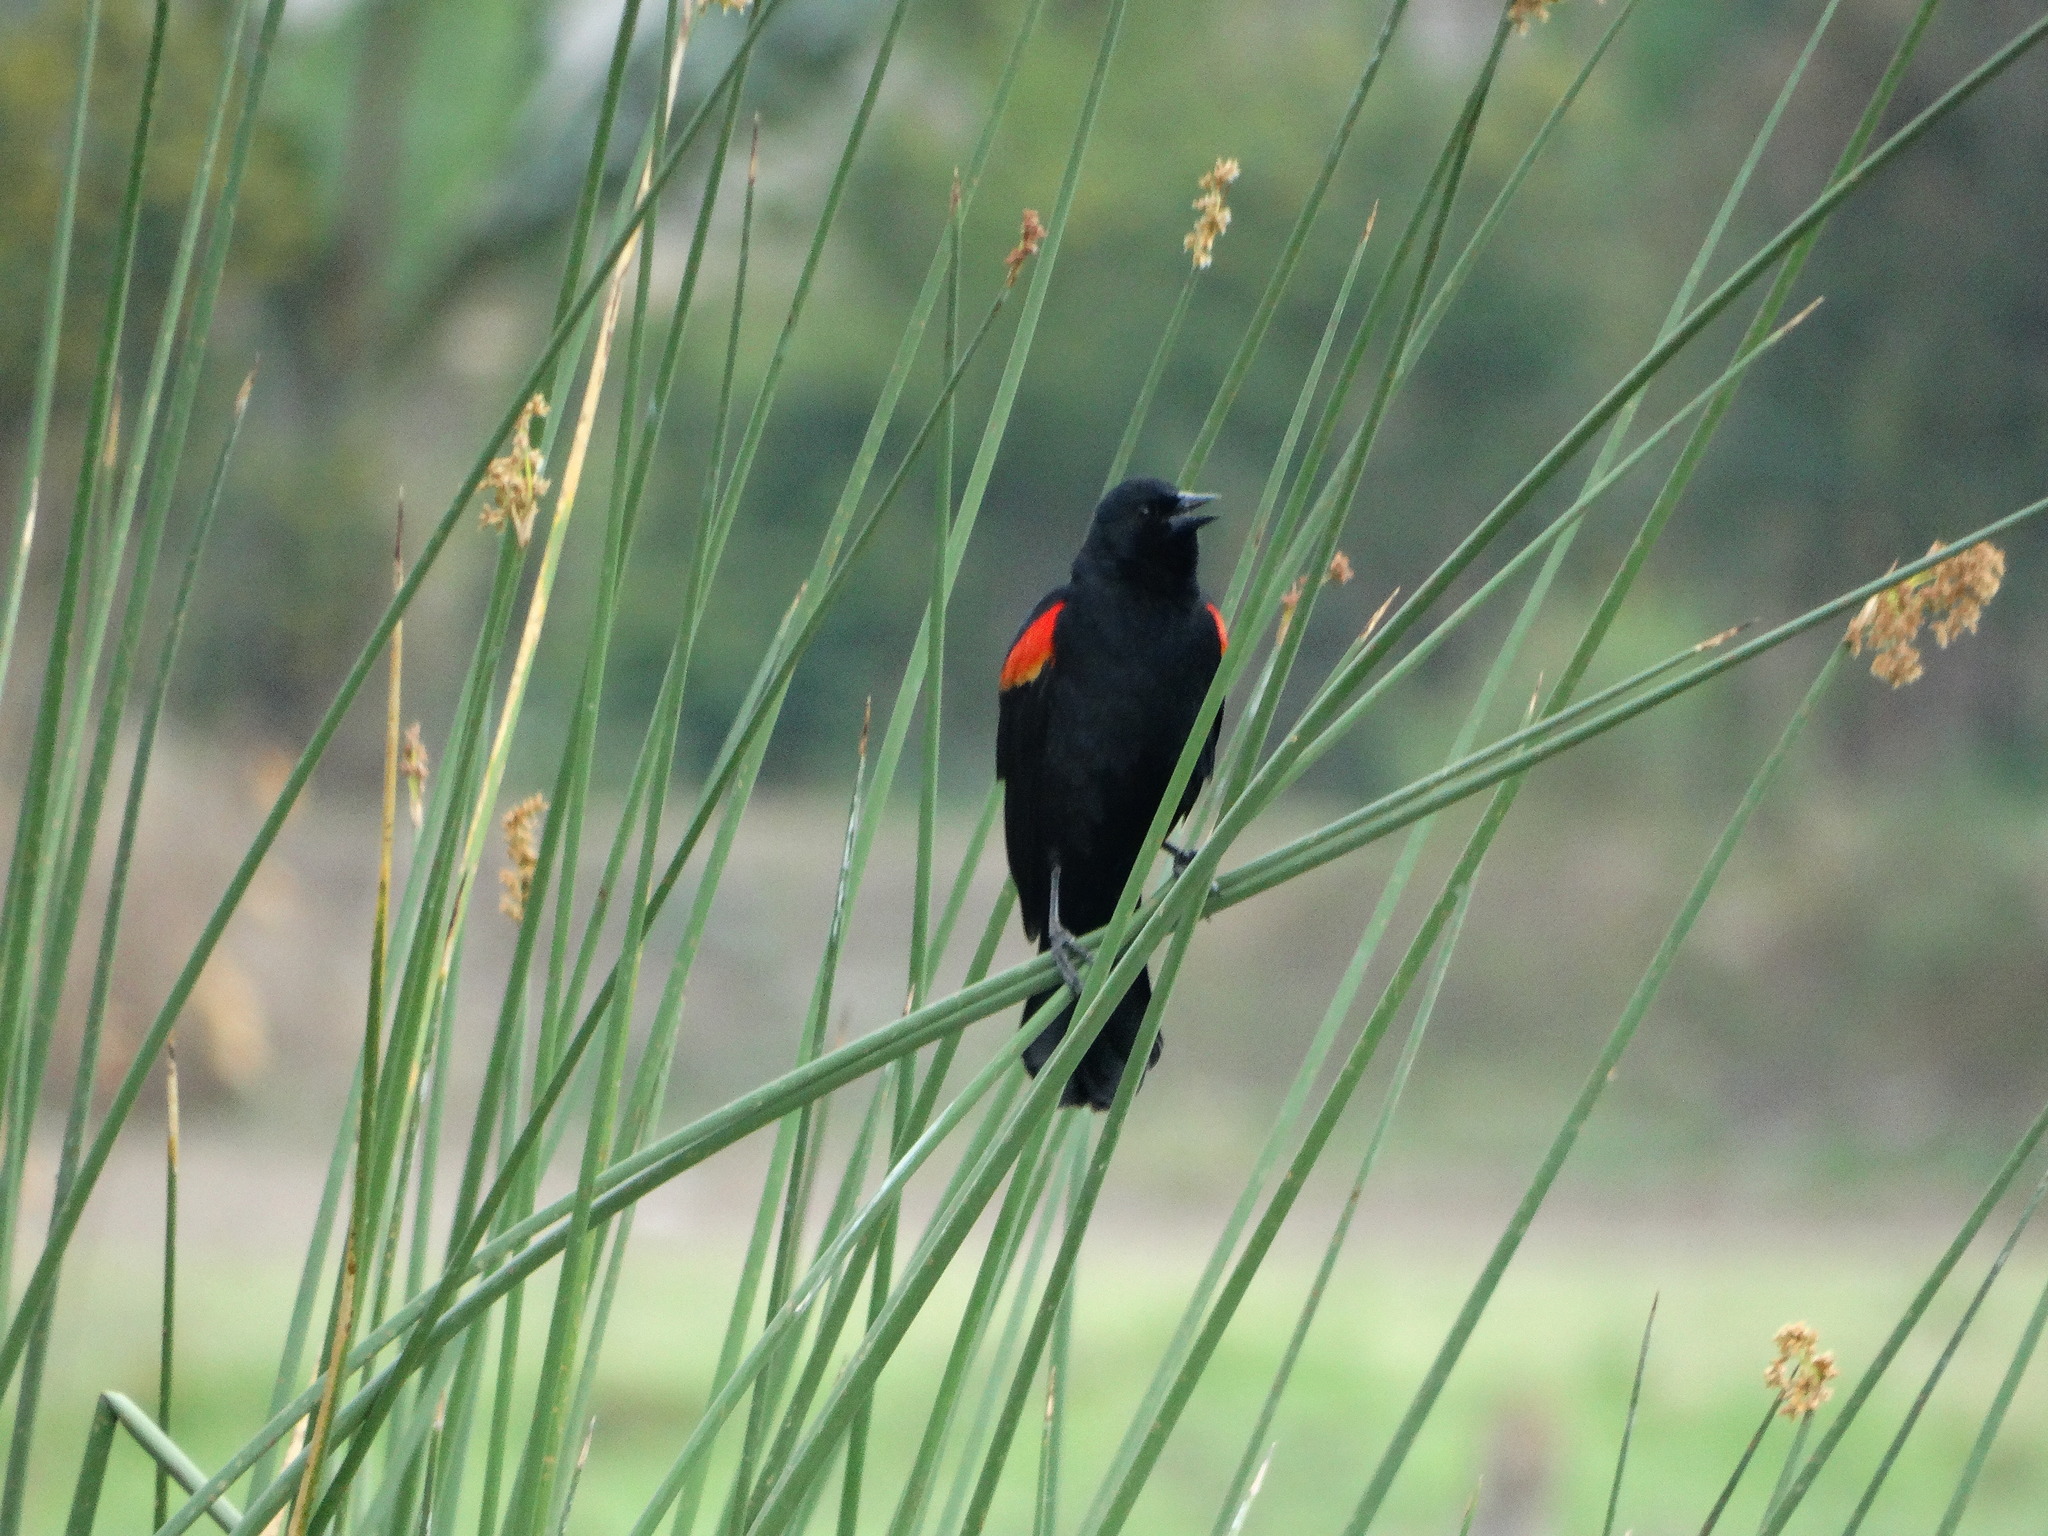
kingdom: Animalia
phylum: Chordata
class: Aves
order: Passeriformes
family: Icteridae
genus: Agelaius
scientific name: Agelaius phoeniceus
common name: Red-winged blackbird
